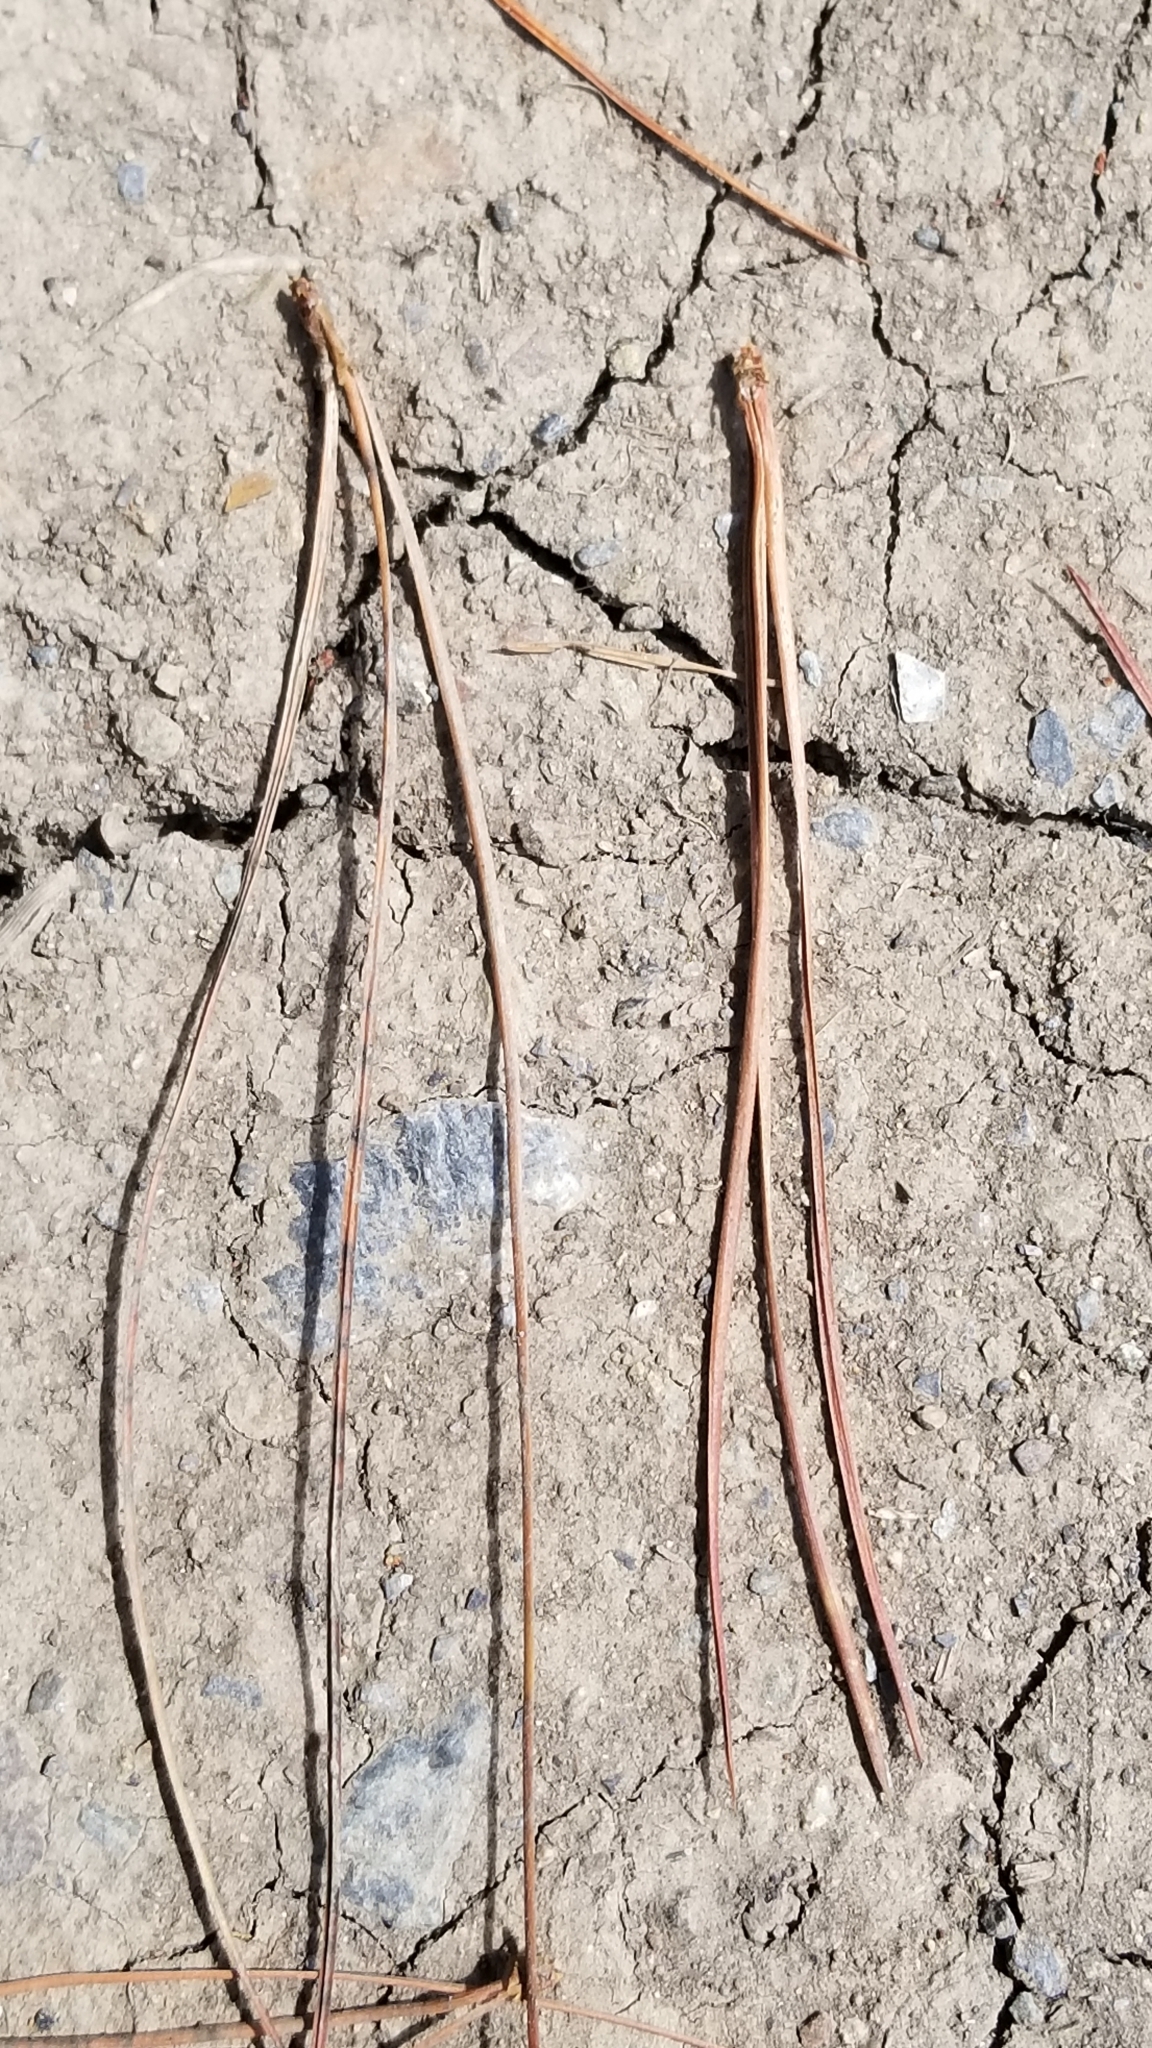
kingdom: Plantae
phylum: Tracheophyta
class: Pinopsida
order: Pinales
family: Pinaceae
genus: Pinus
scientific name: Pinus radiata
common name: Monterey pine
